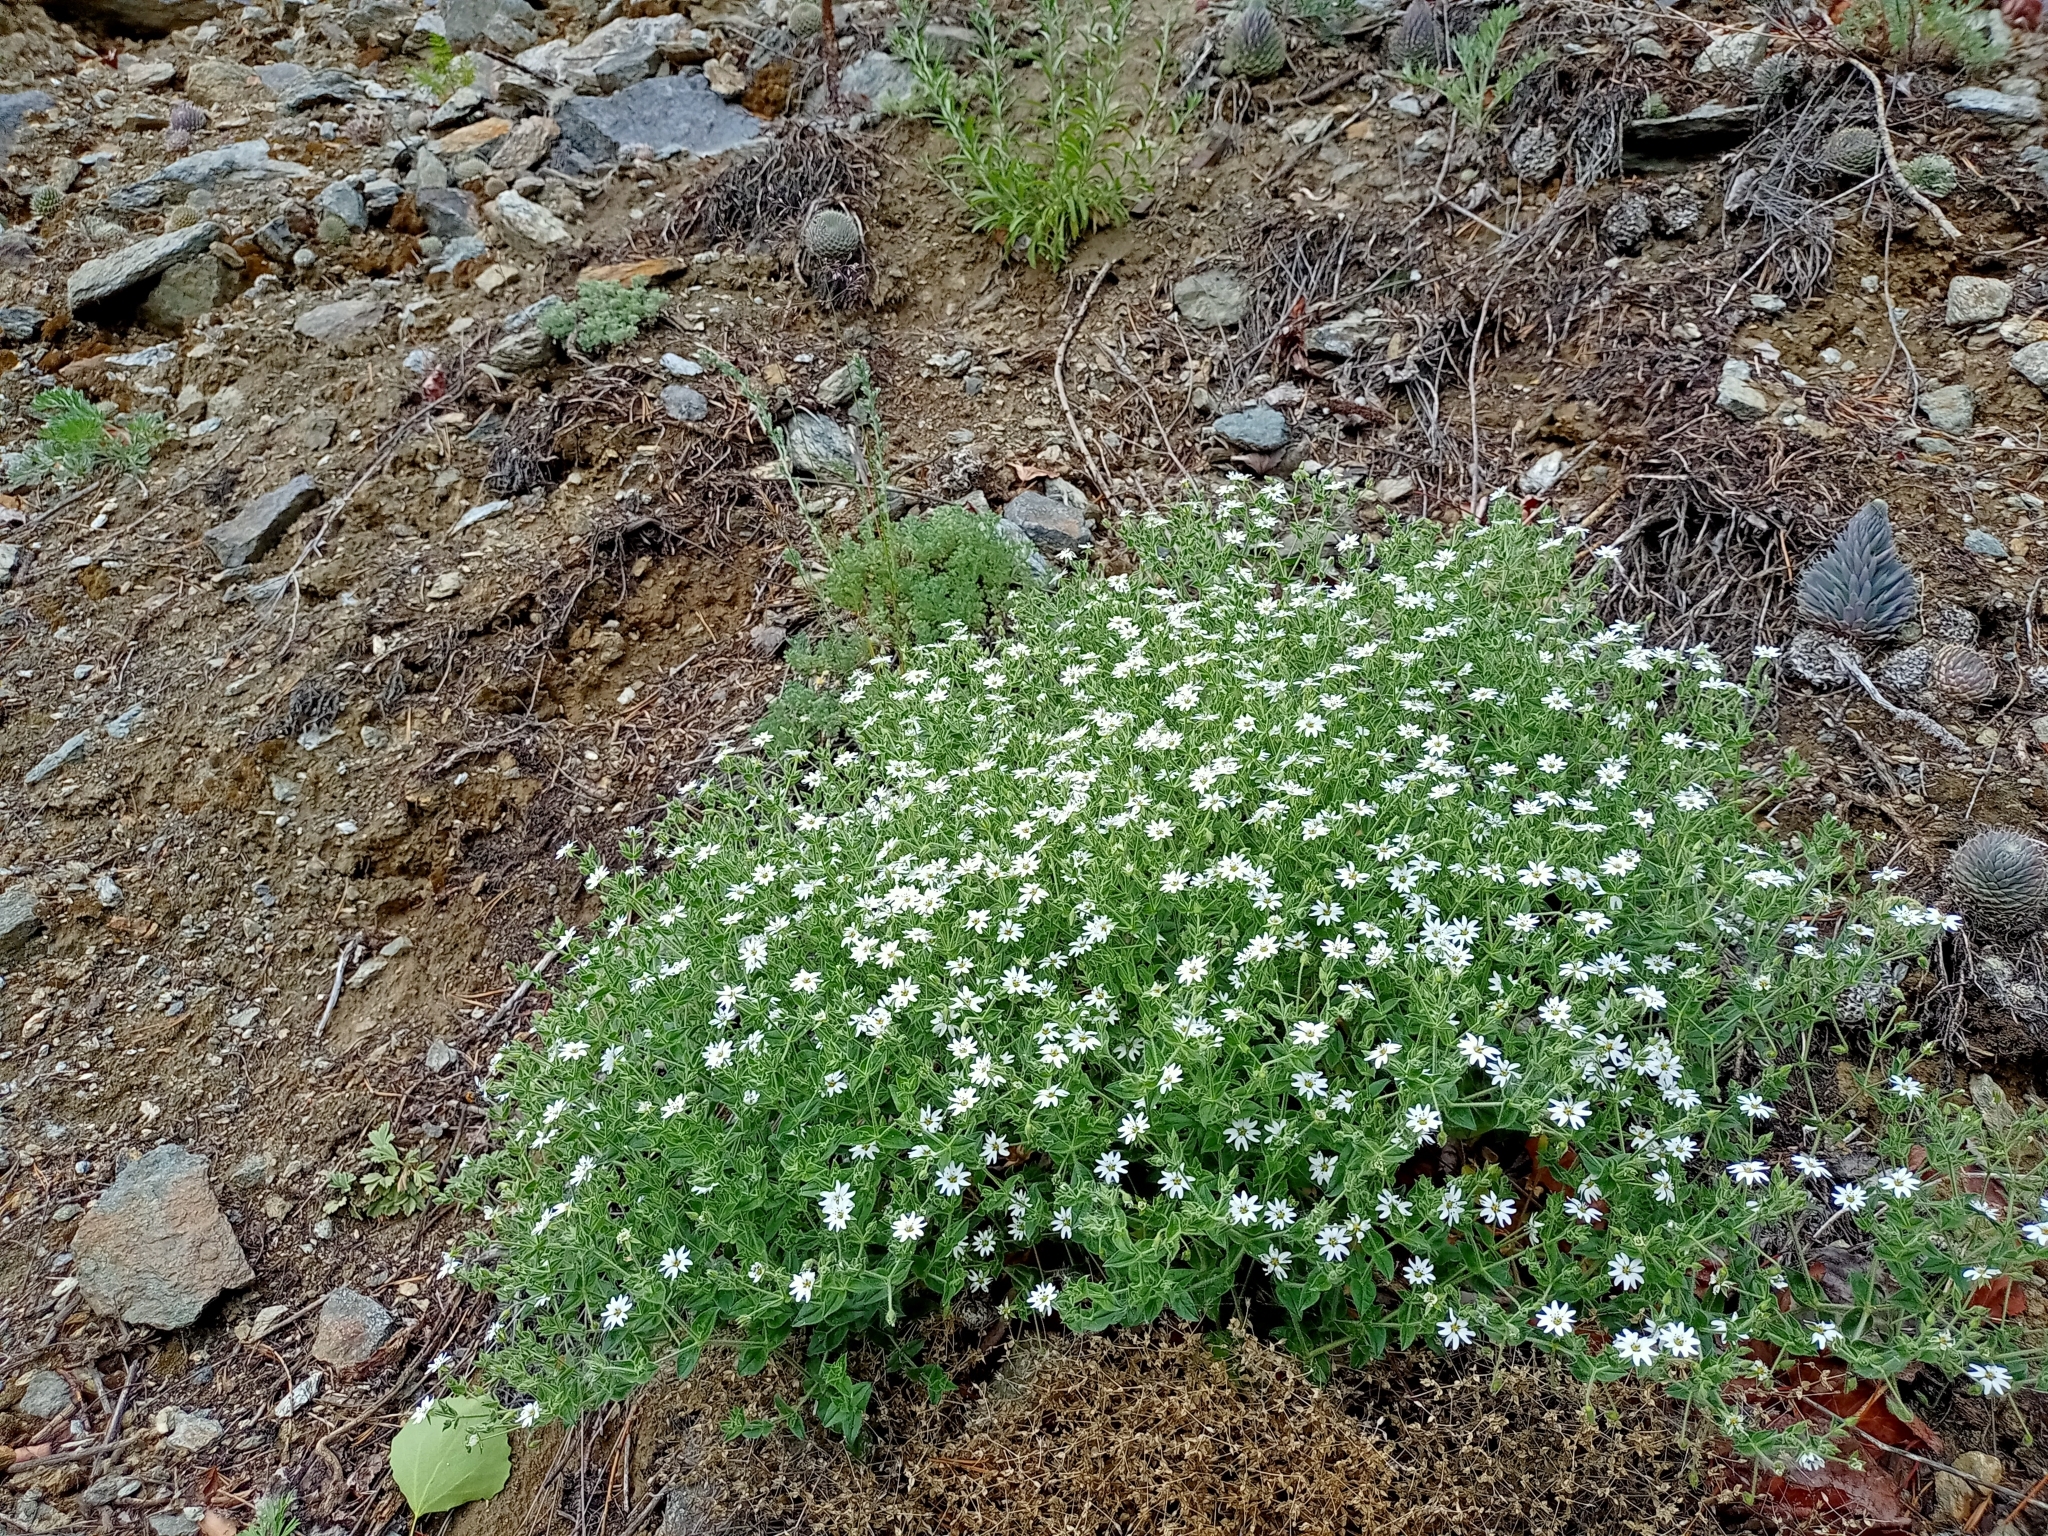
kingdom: Plantae
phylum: Tracheophyta
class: Magnoliopsida
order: Caryophyllales
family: Caryophyllaceae
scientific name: Caryophyllaceae
